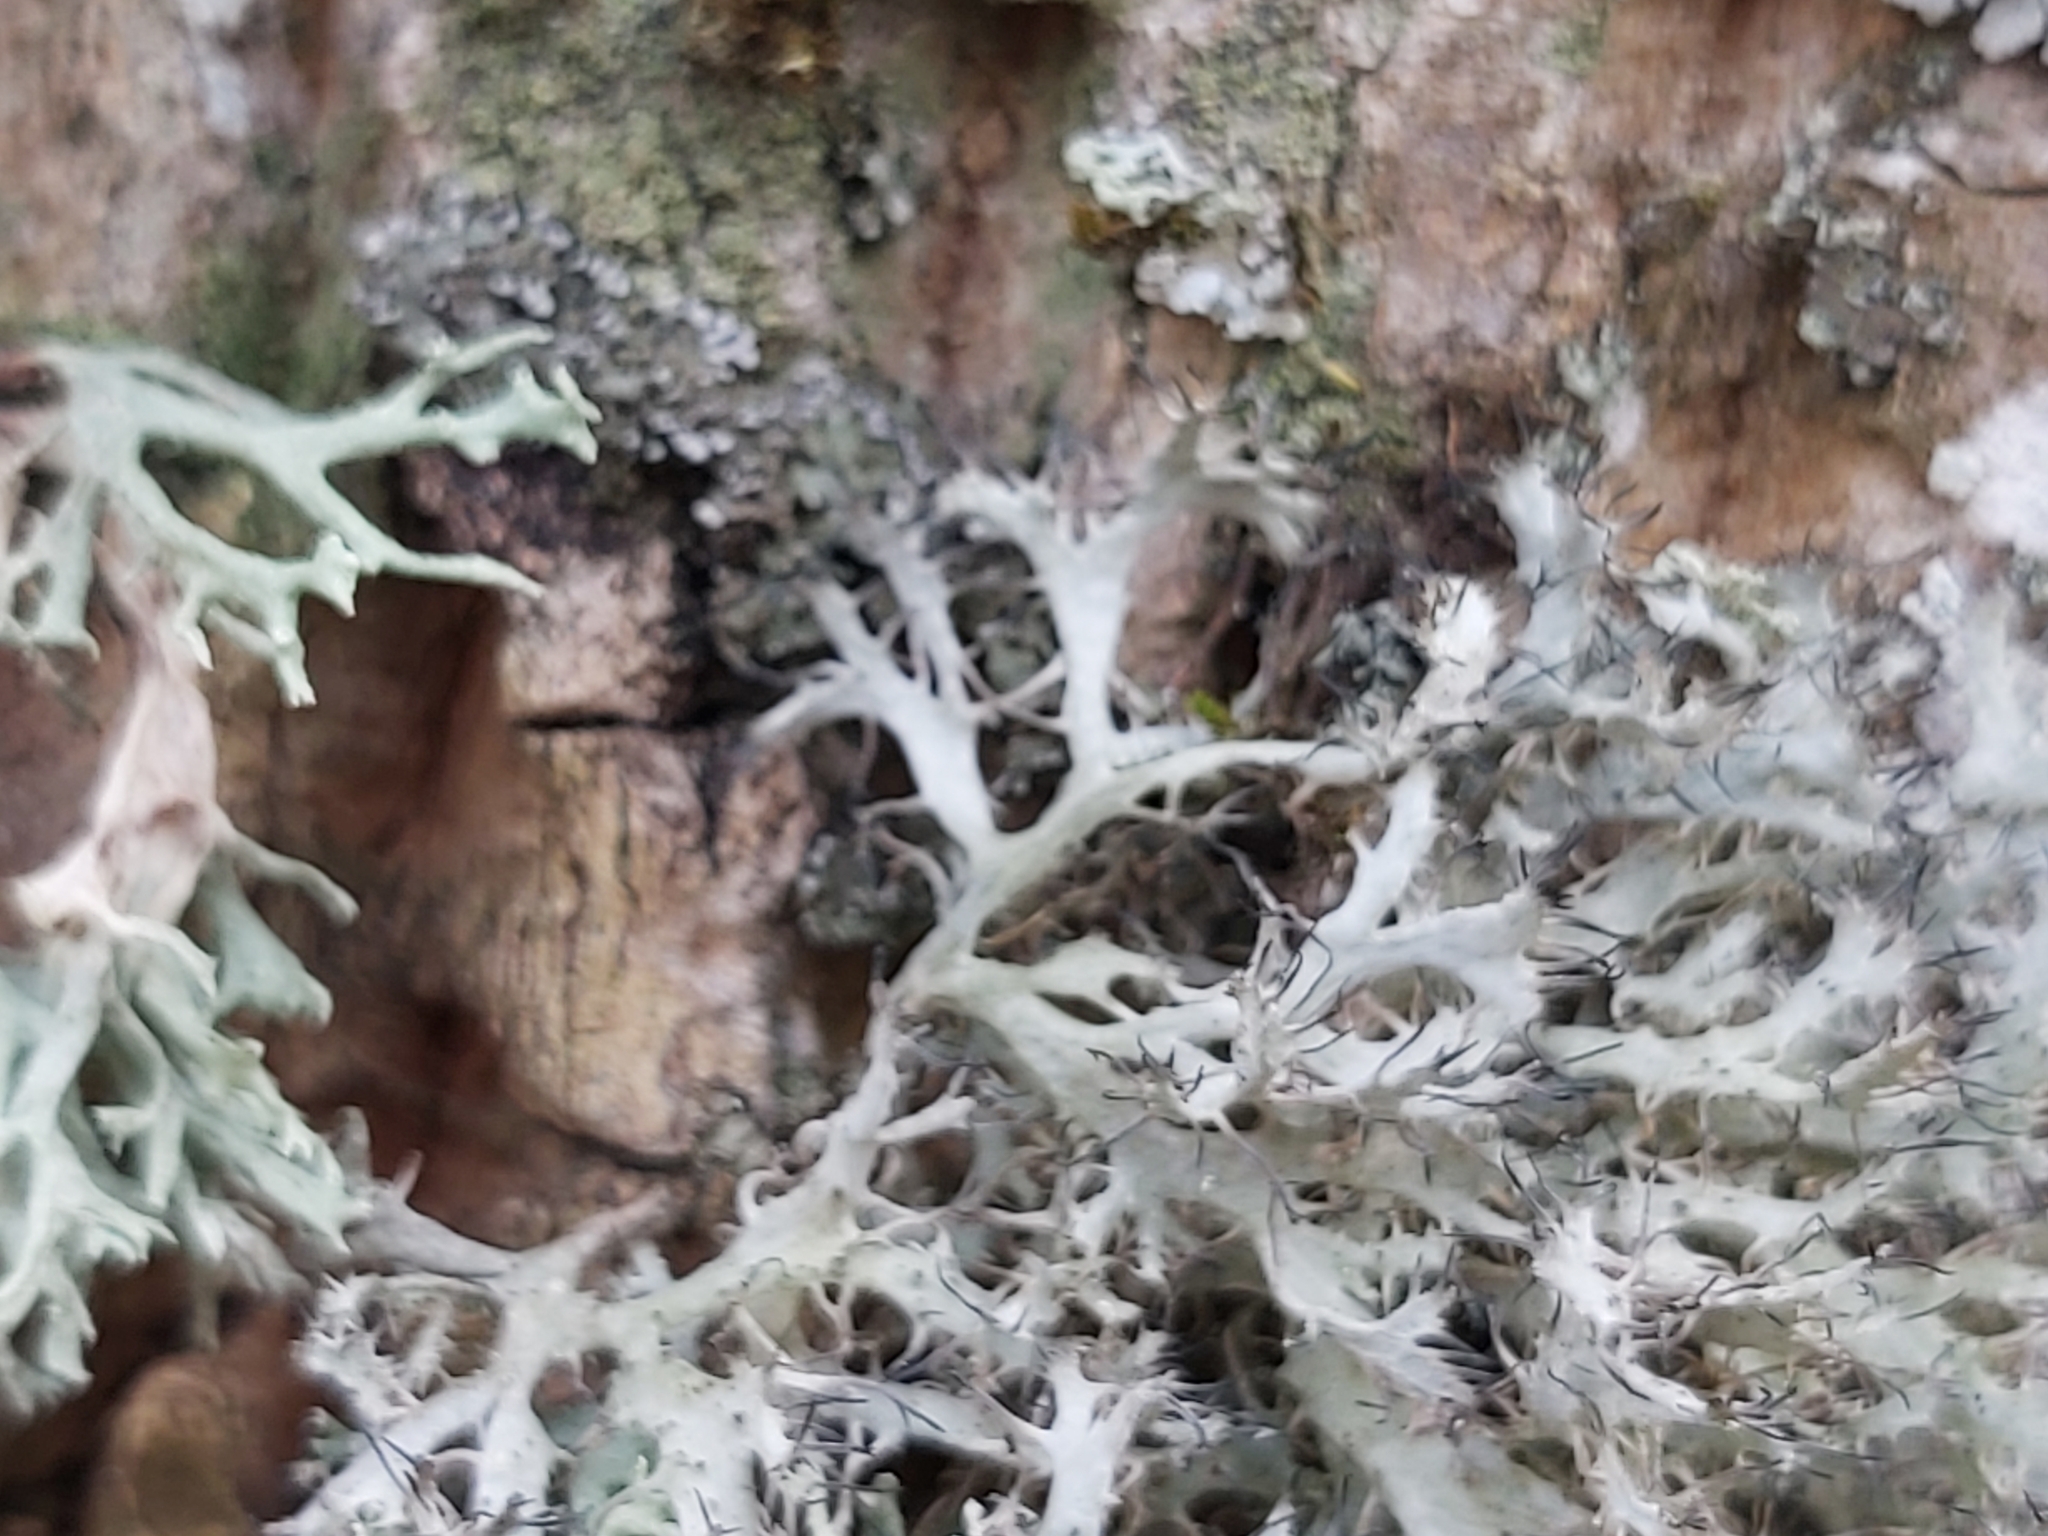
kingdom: Fungi
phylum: Ascomycota
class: Lecanoromycetes
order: Caliciales
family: Physciaceae
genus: Anaptychia
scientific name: Anaptychia ciliaris
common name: Great ciliated lichen
